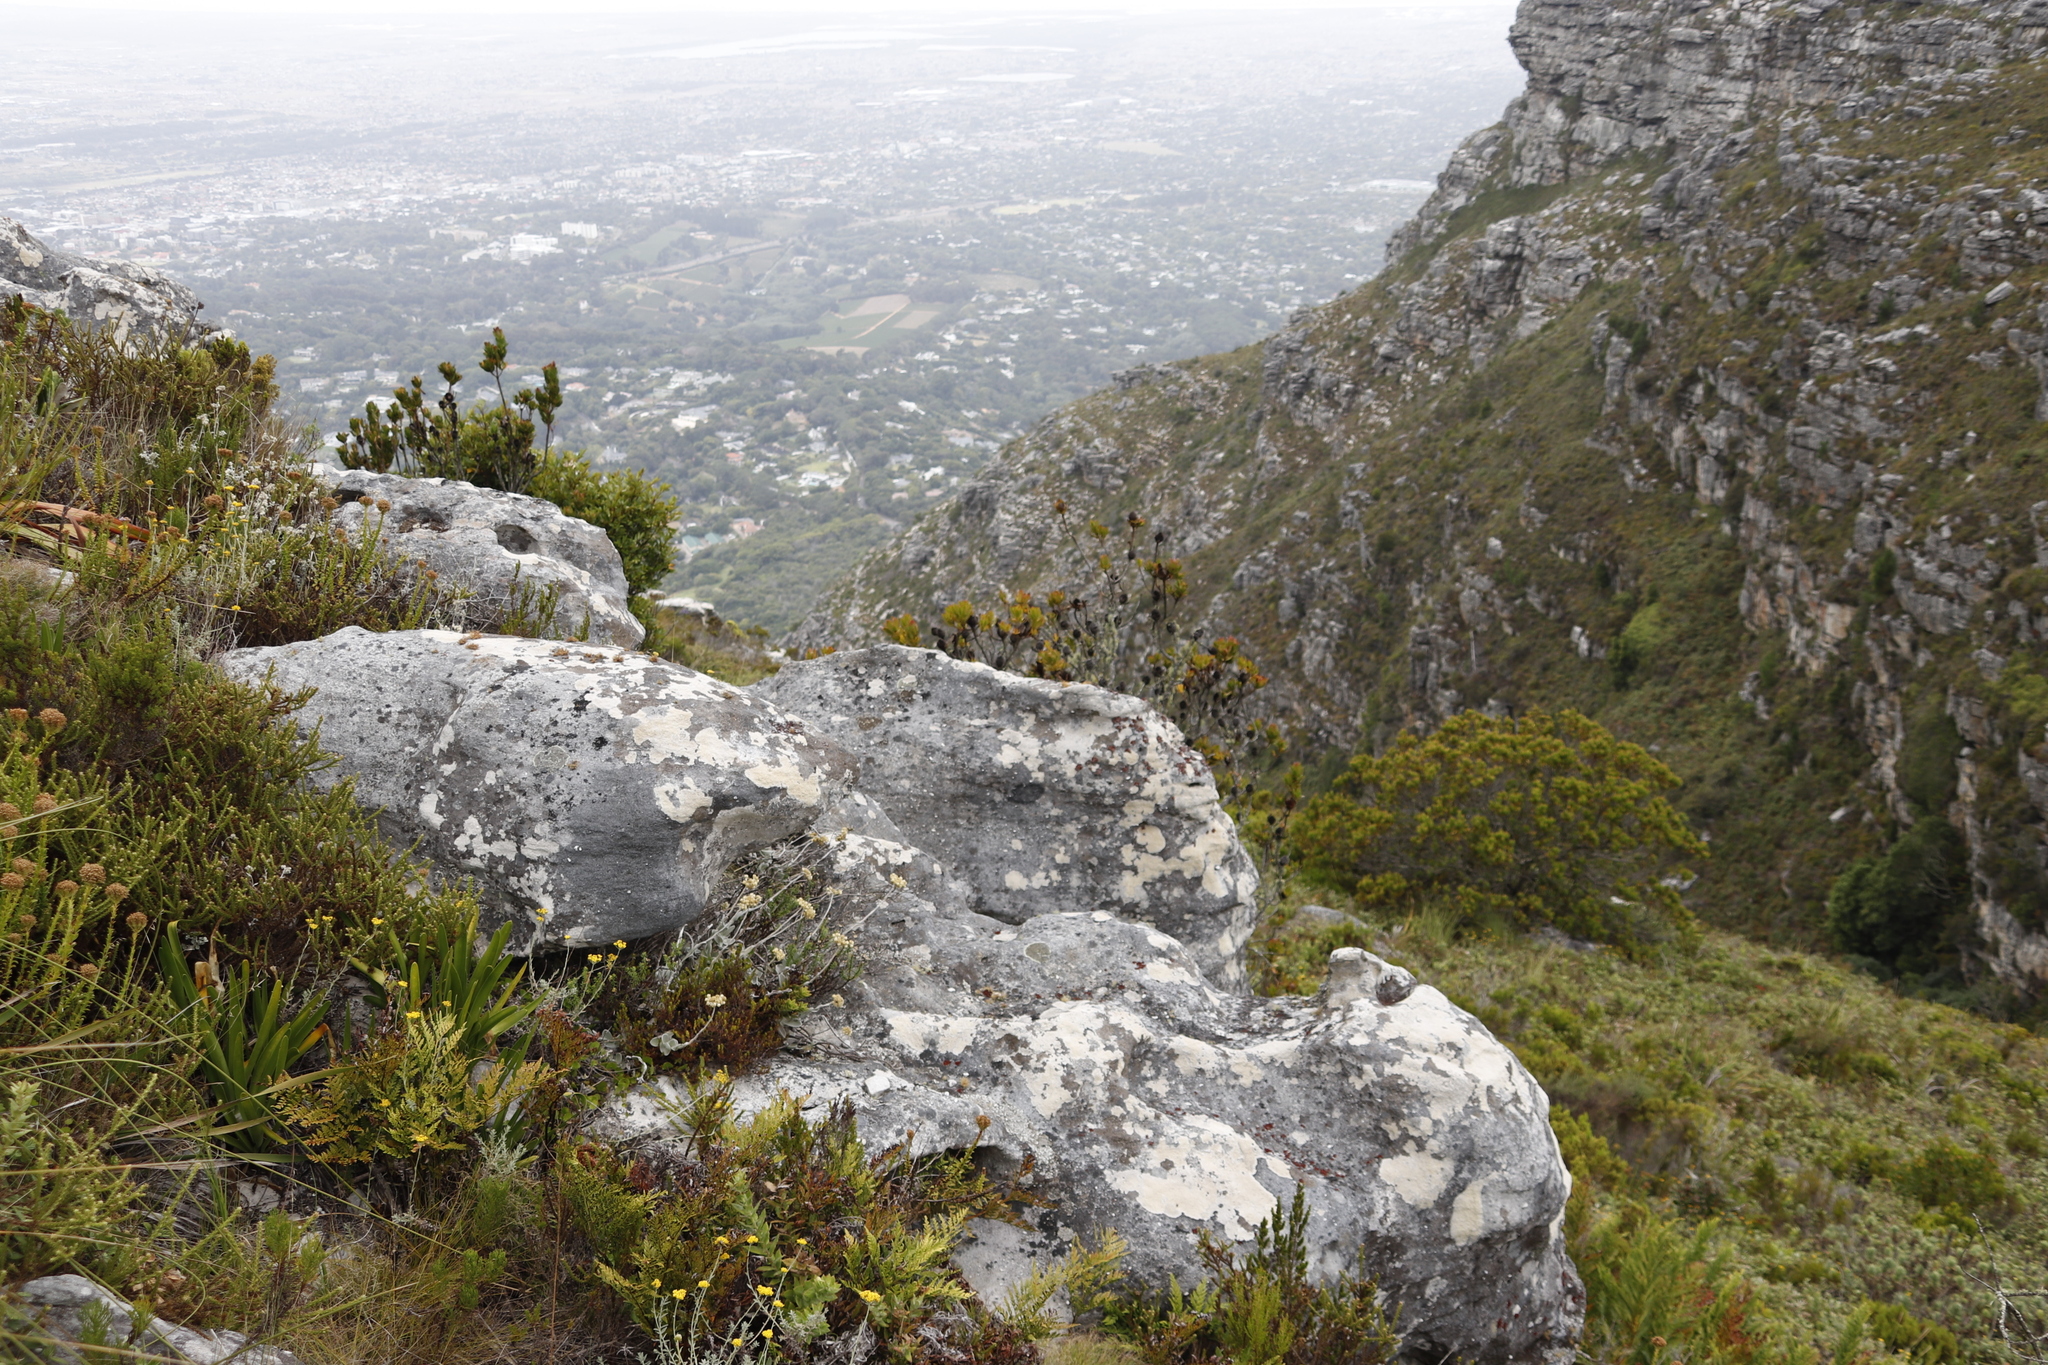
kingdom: Plantae
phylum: Tracheophyta
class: Magnoliopsida
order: Proteales
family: Proteaceae
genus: Leucadendron
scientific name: Leucadendron strobilinum
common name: Mountain rose
